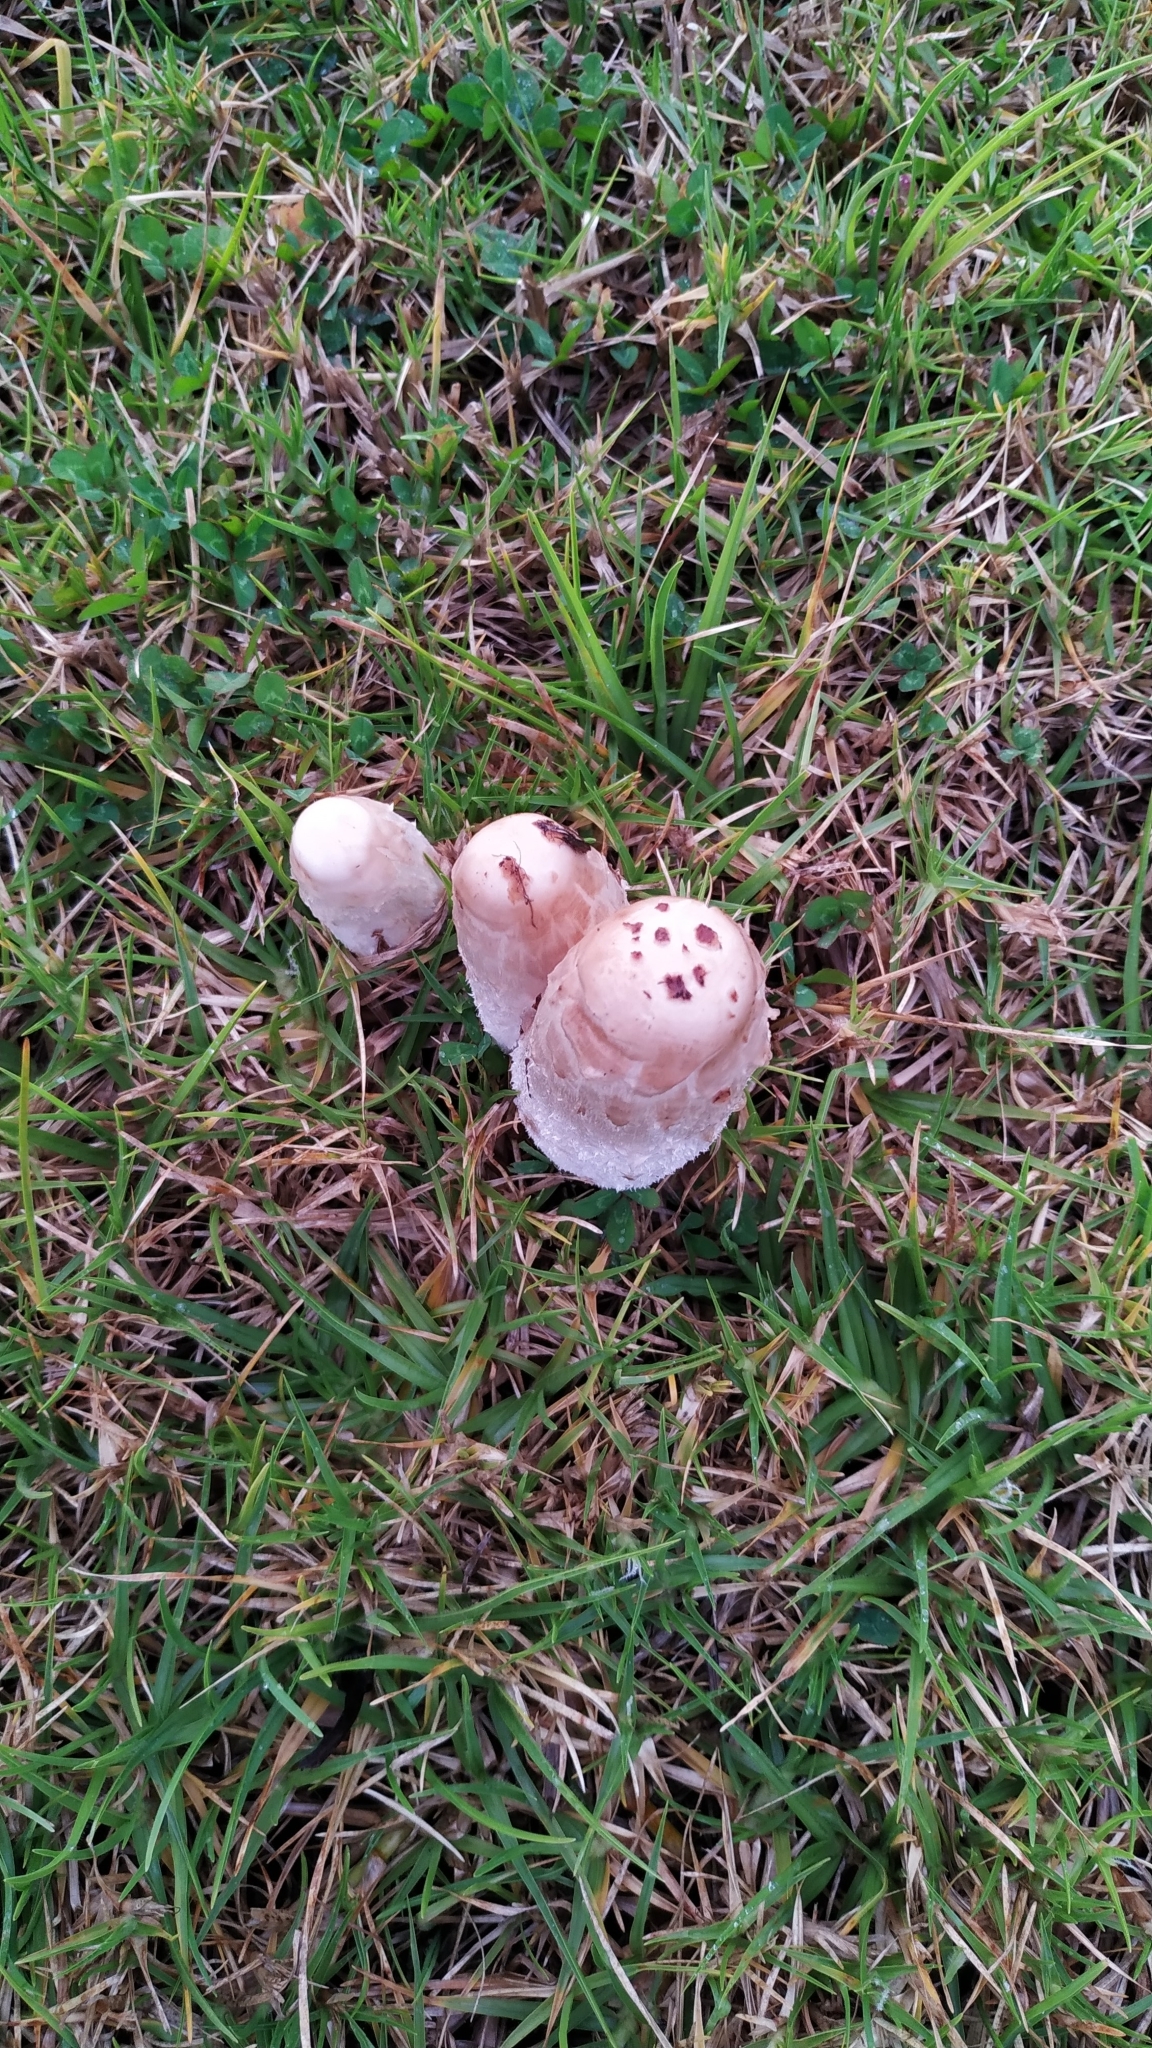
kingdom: Fungi
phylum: Basidiomycota
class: Agaricomycetes
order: Agaricales
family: Agaricaceae
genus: Coprinus
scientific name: Coprinus comatus
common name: Lawyer's wig
